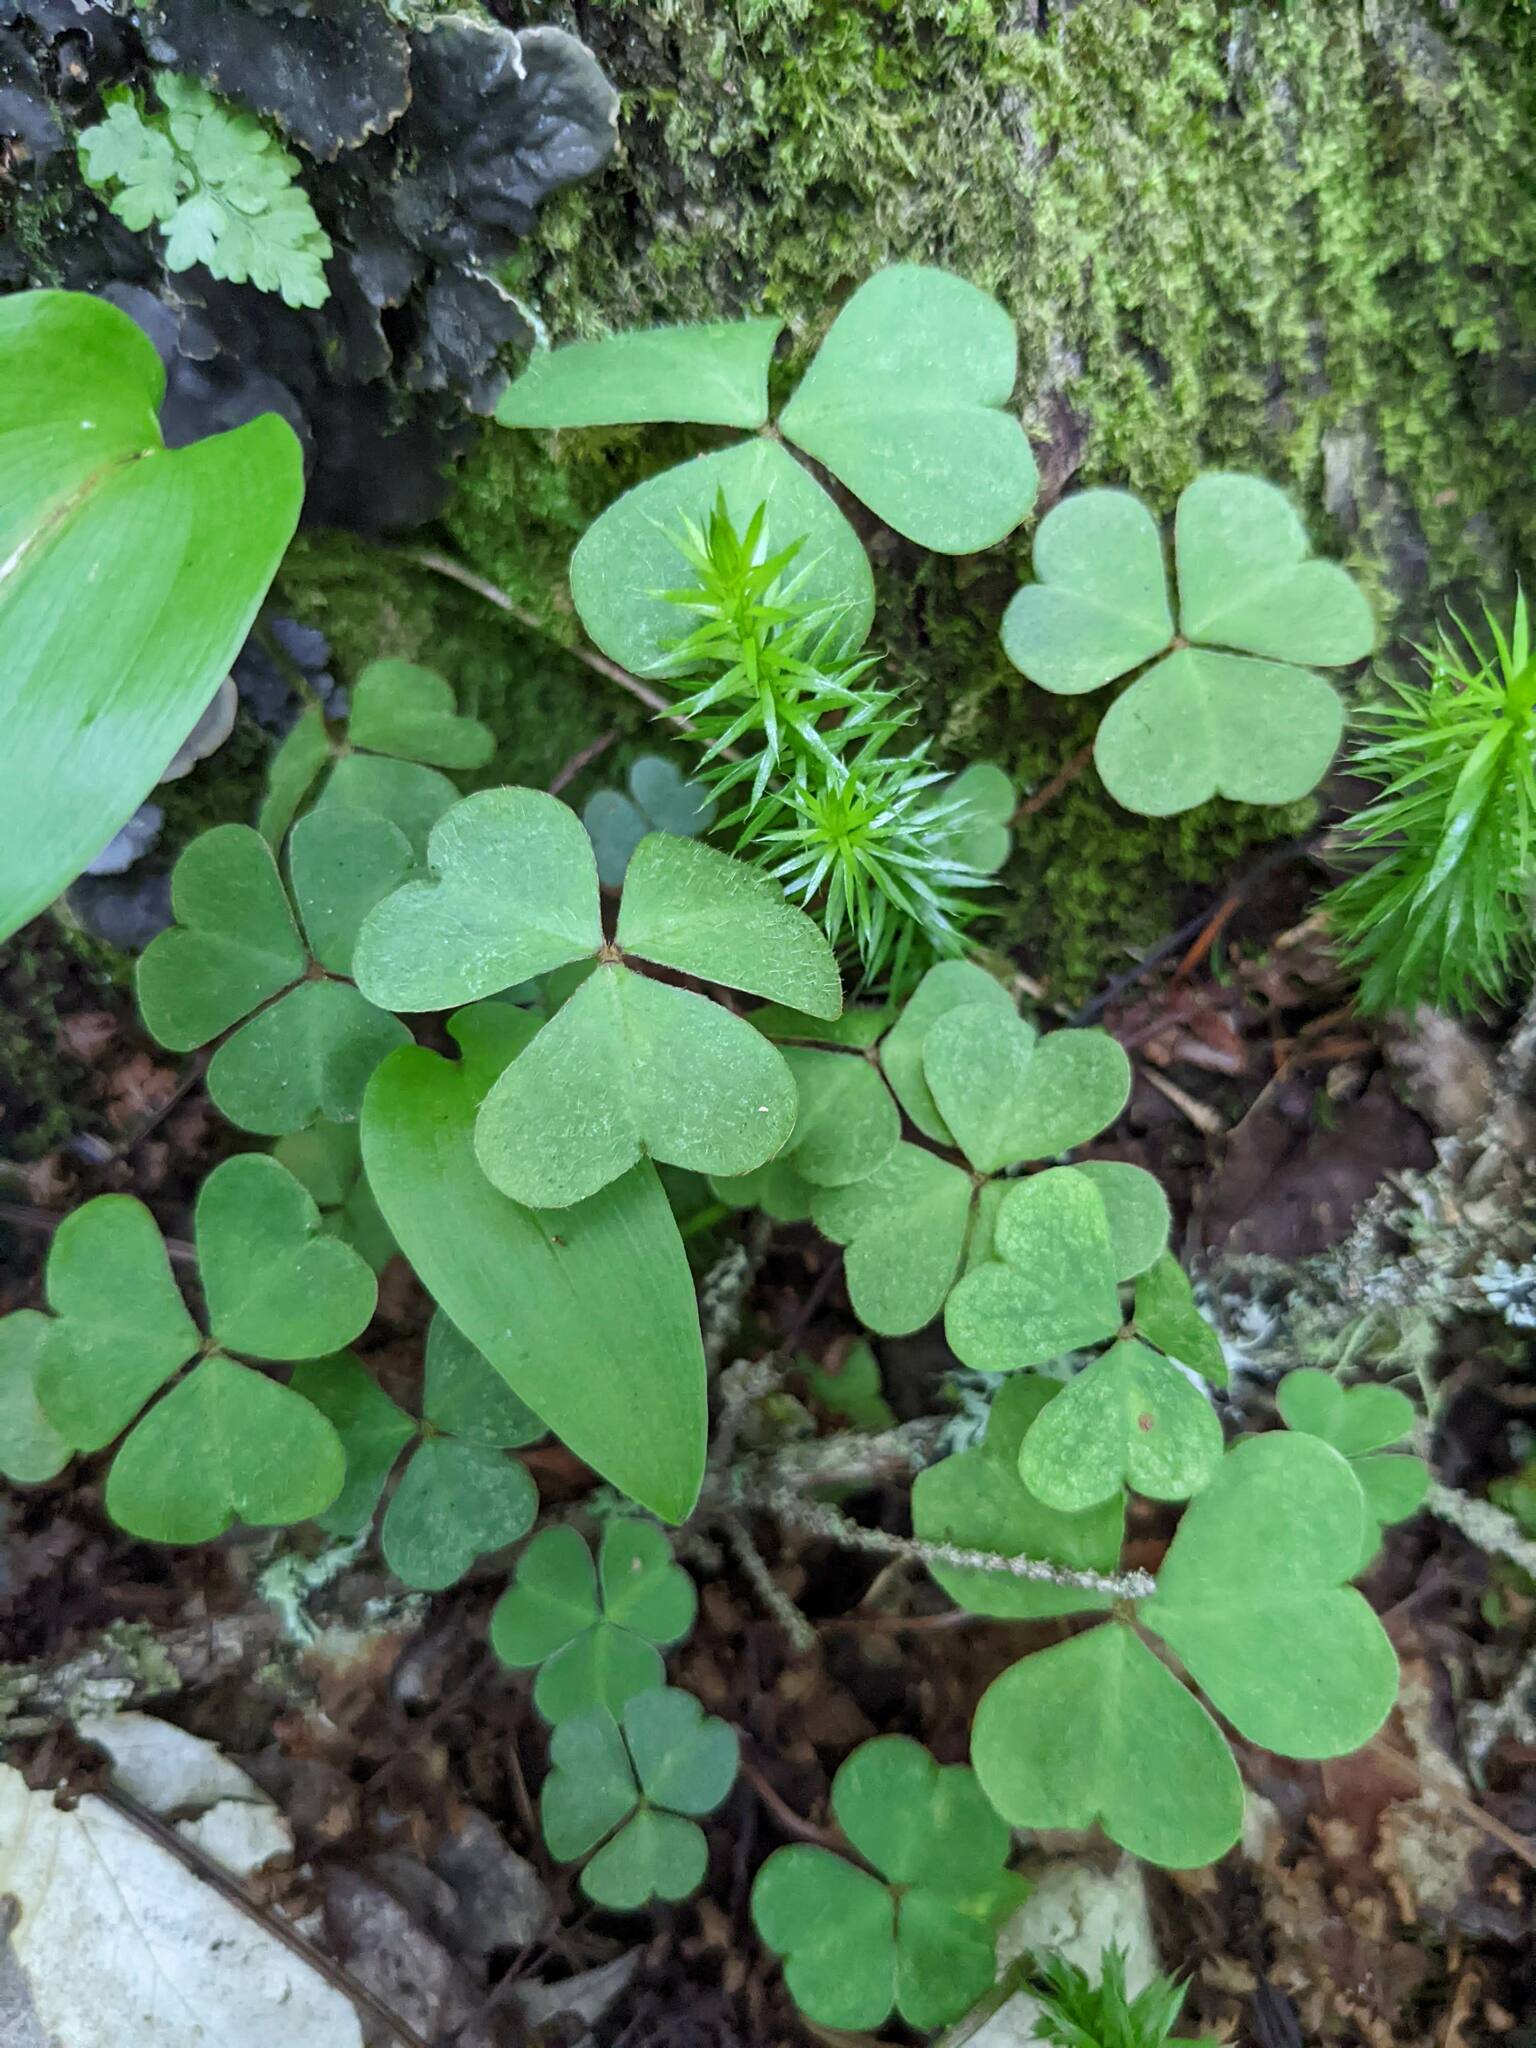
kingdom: Plantae
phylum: Tracheophyta
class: Lycopodiopsida
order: Lycopodiales
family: Lycopodiaceae
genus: Spinulum
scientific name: Spinulum annotinum
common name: Interrupted club-moss
